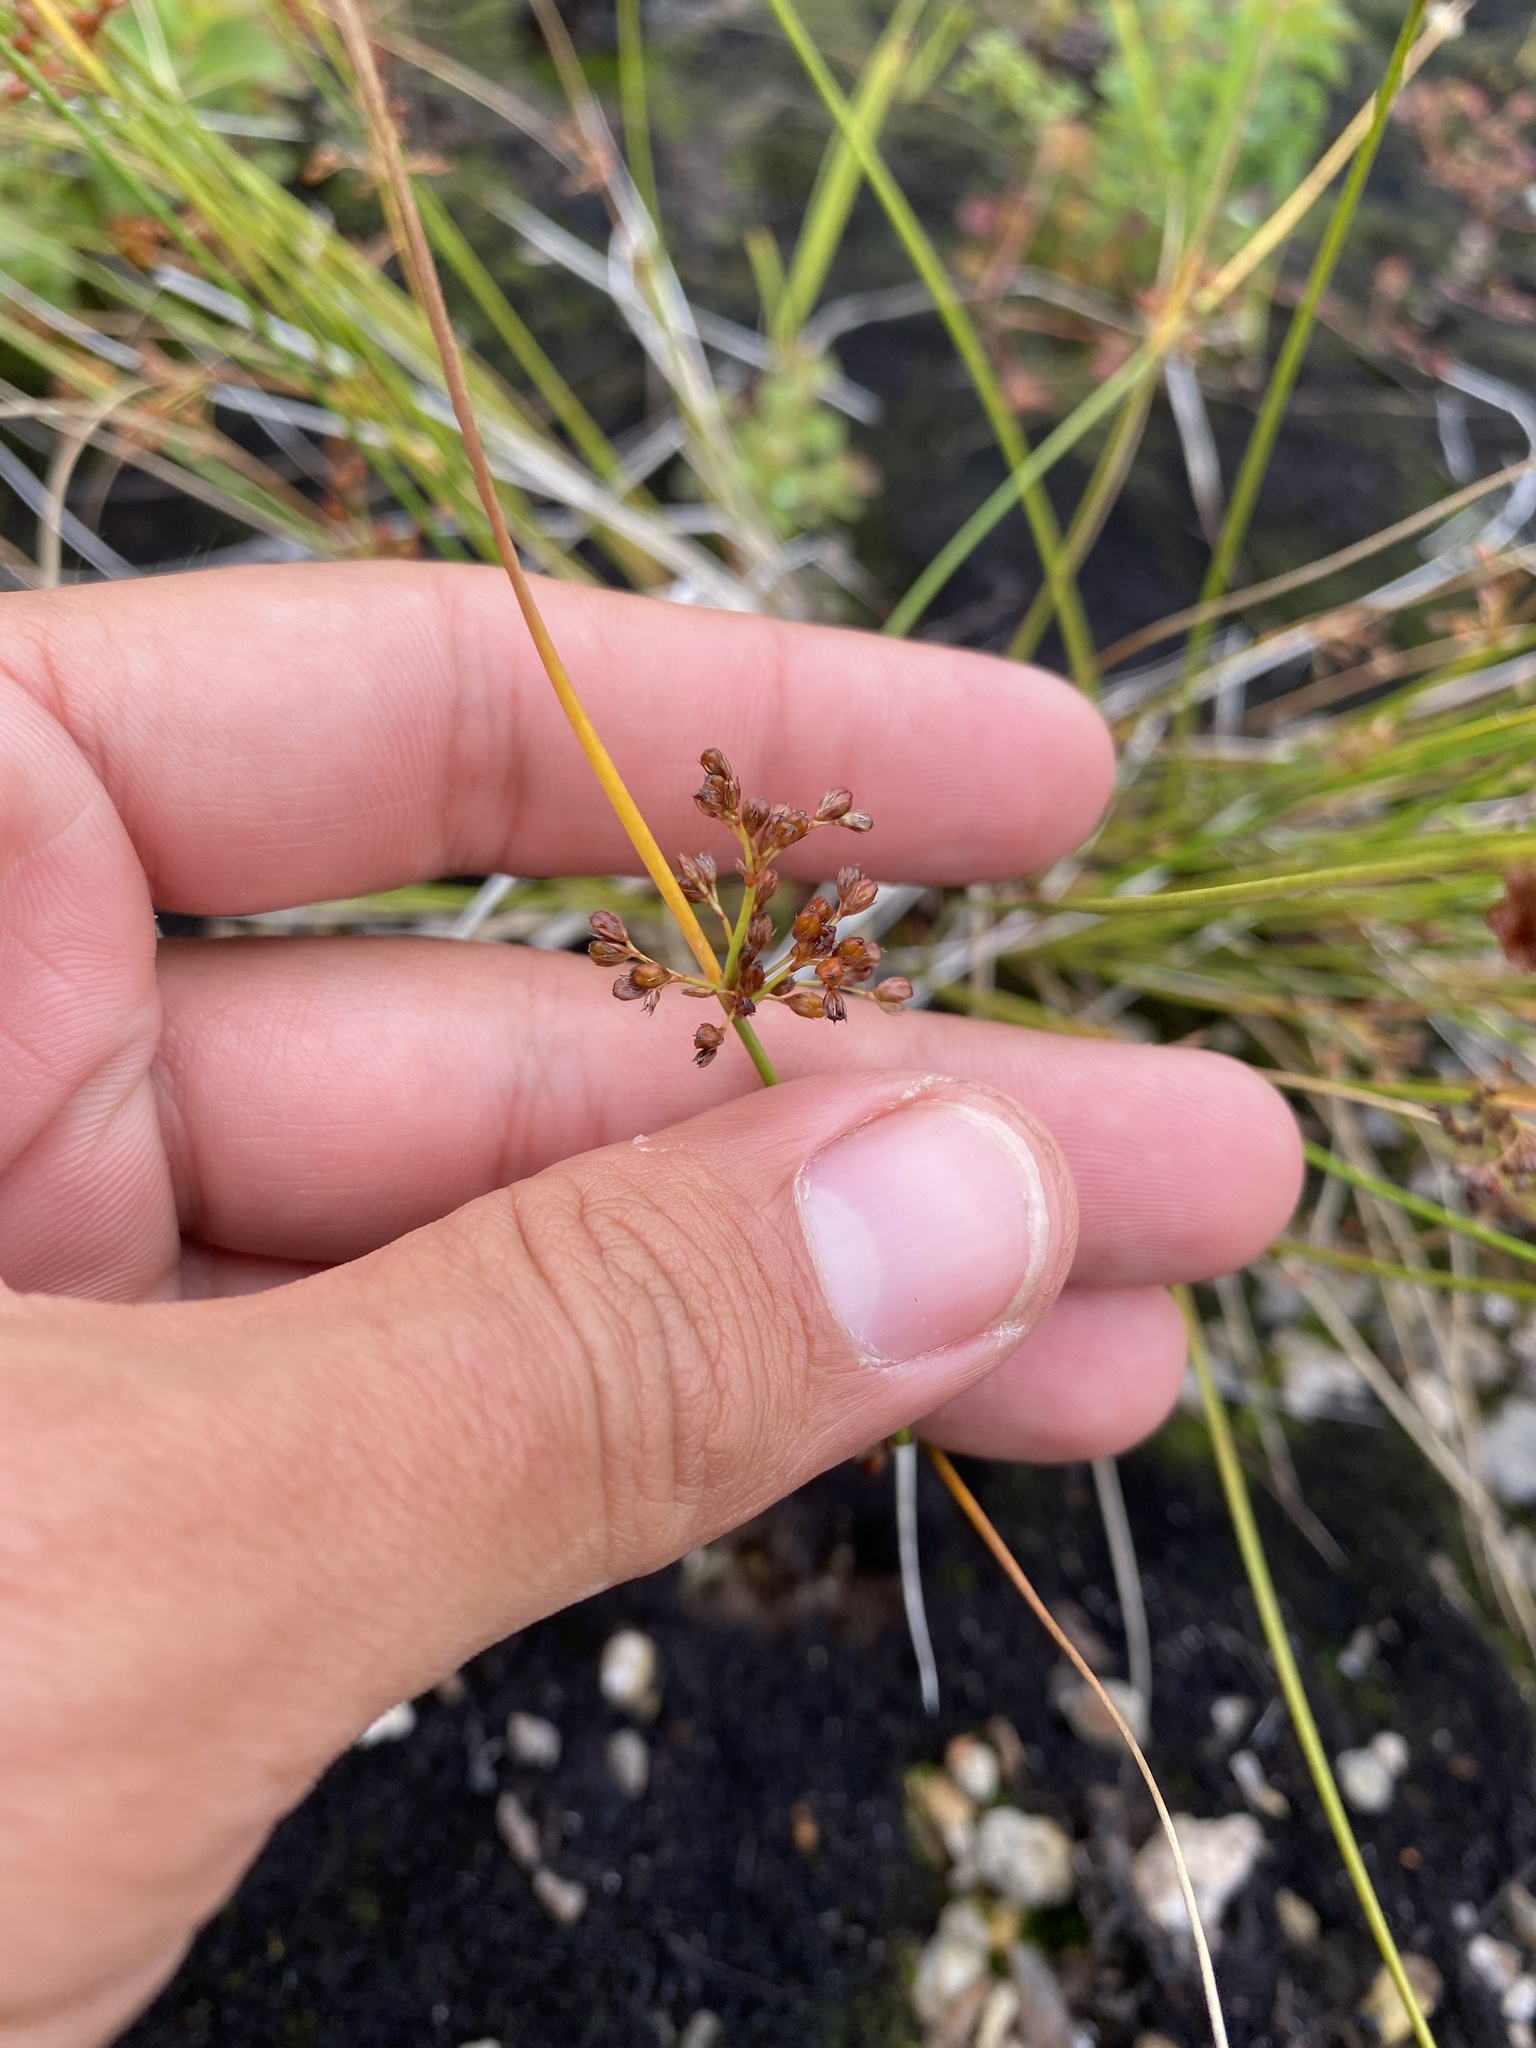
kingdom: Plantae
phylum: Tracheophyta
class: Liliopsida
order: Poales
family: Juncaceae
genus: Juncus
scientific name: Juncus decipiens
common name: Lamp rush
